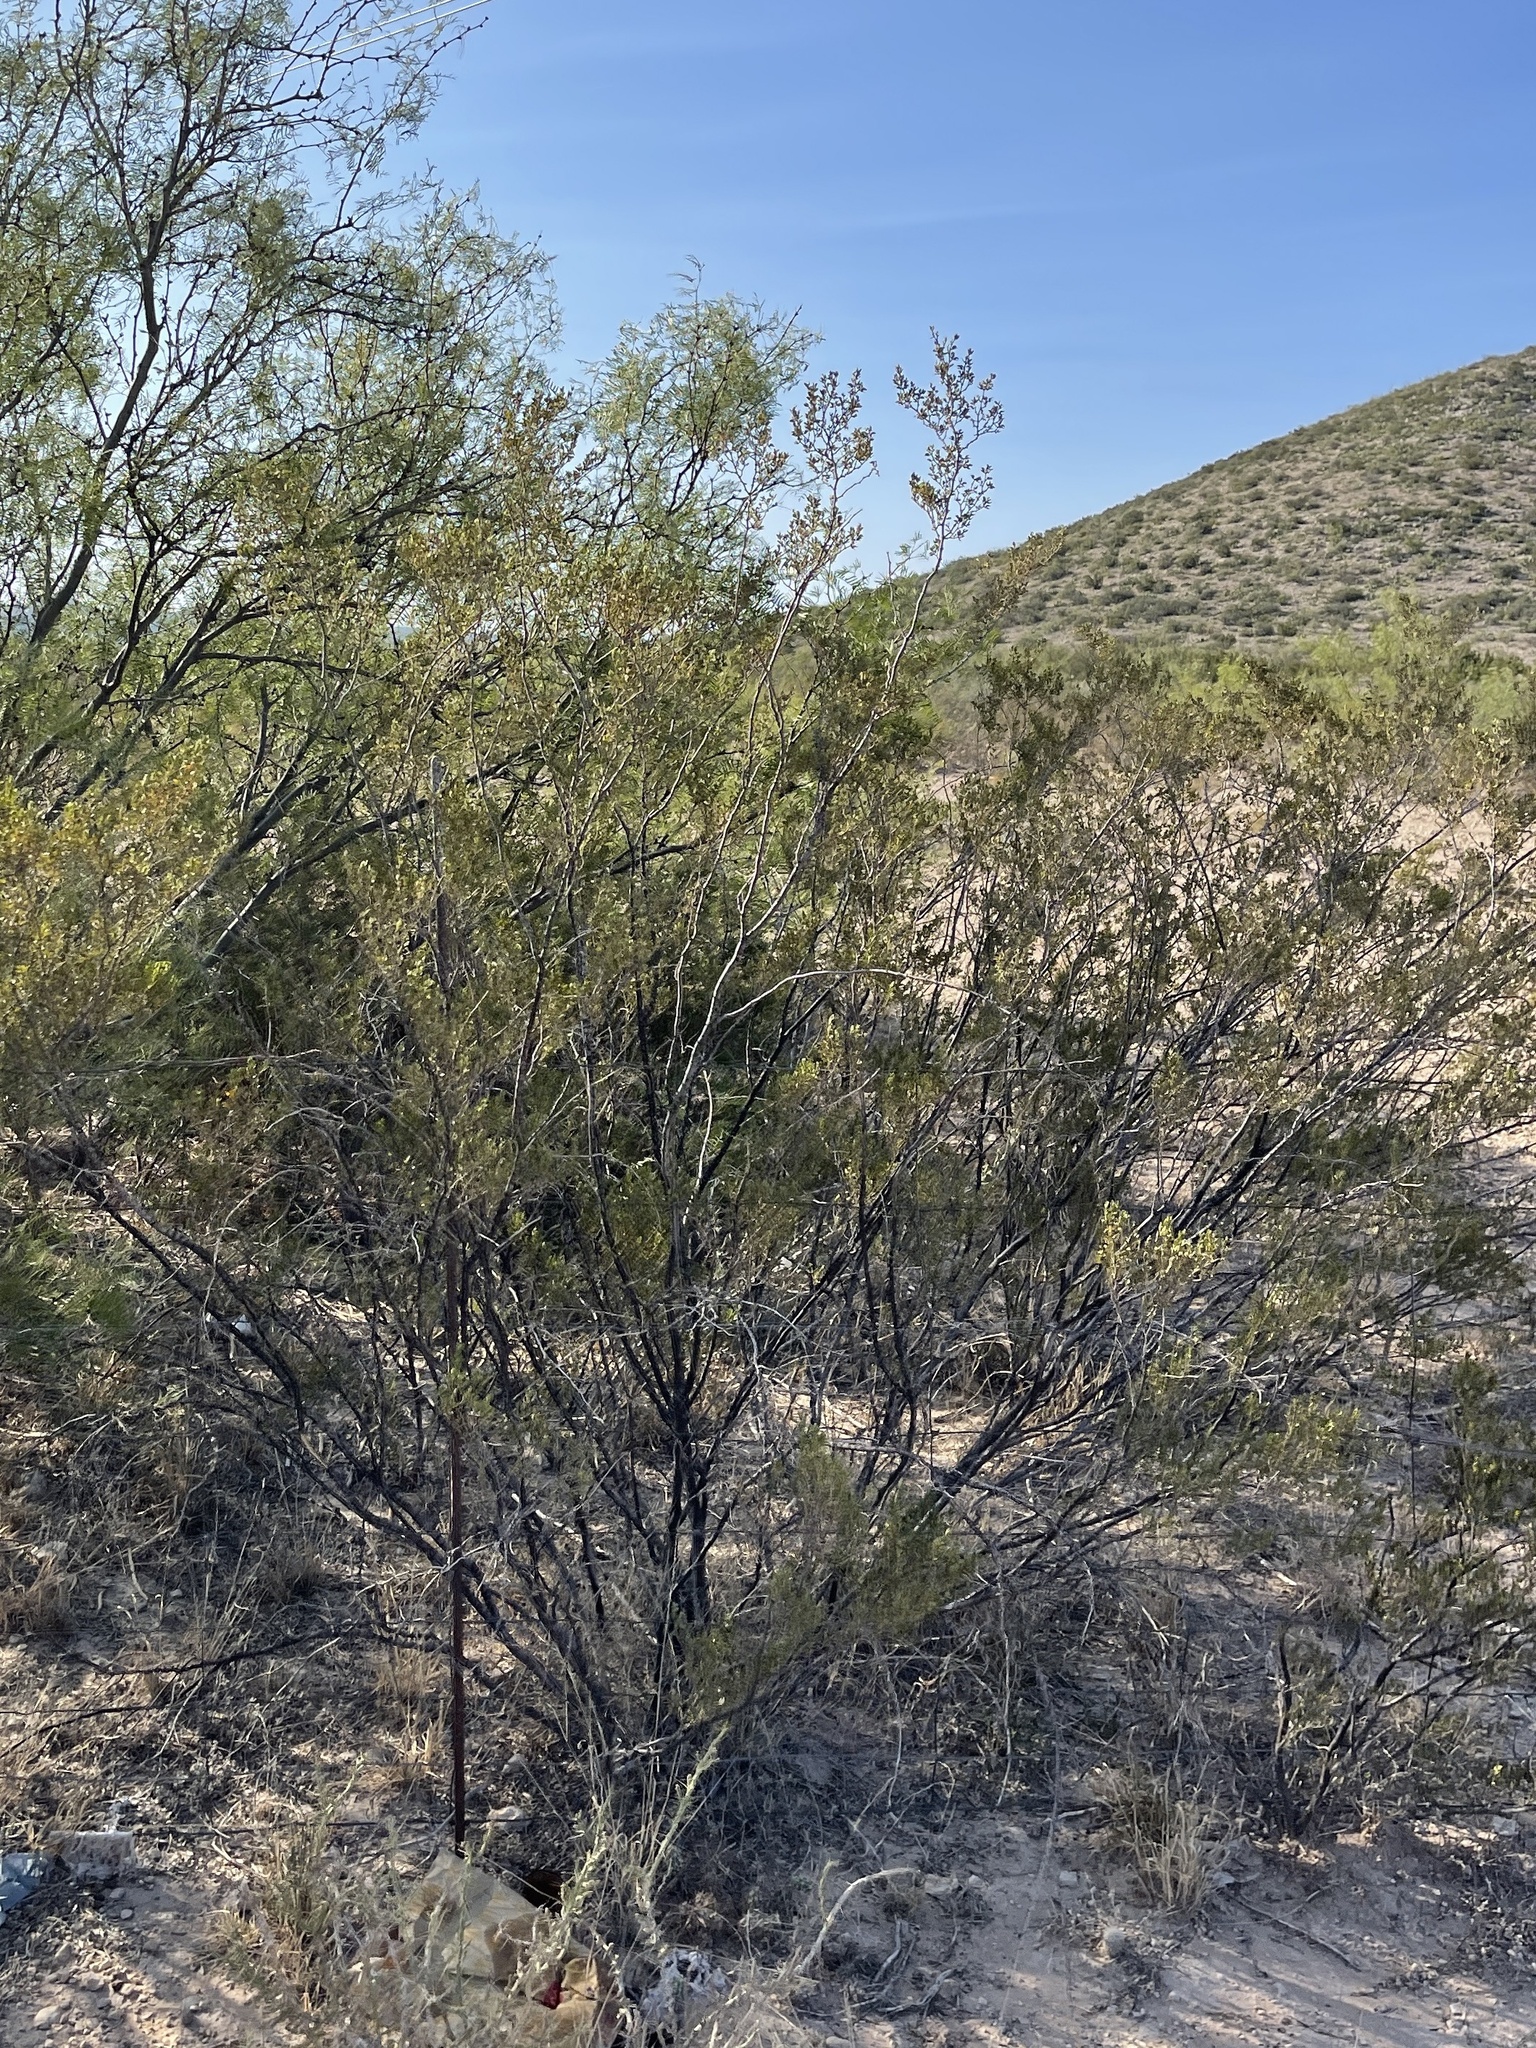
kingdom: Plantae
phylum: Tracheophyta
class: Magnoliopsida
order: Zygophyllales
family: Zygophyllaceae
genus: Larrea
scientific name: Larrea tridentata
